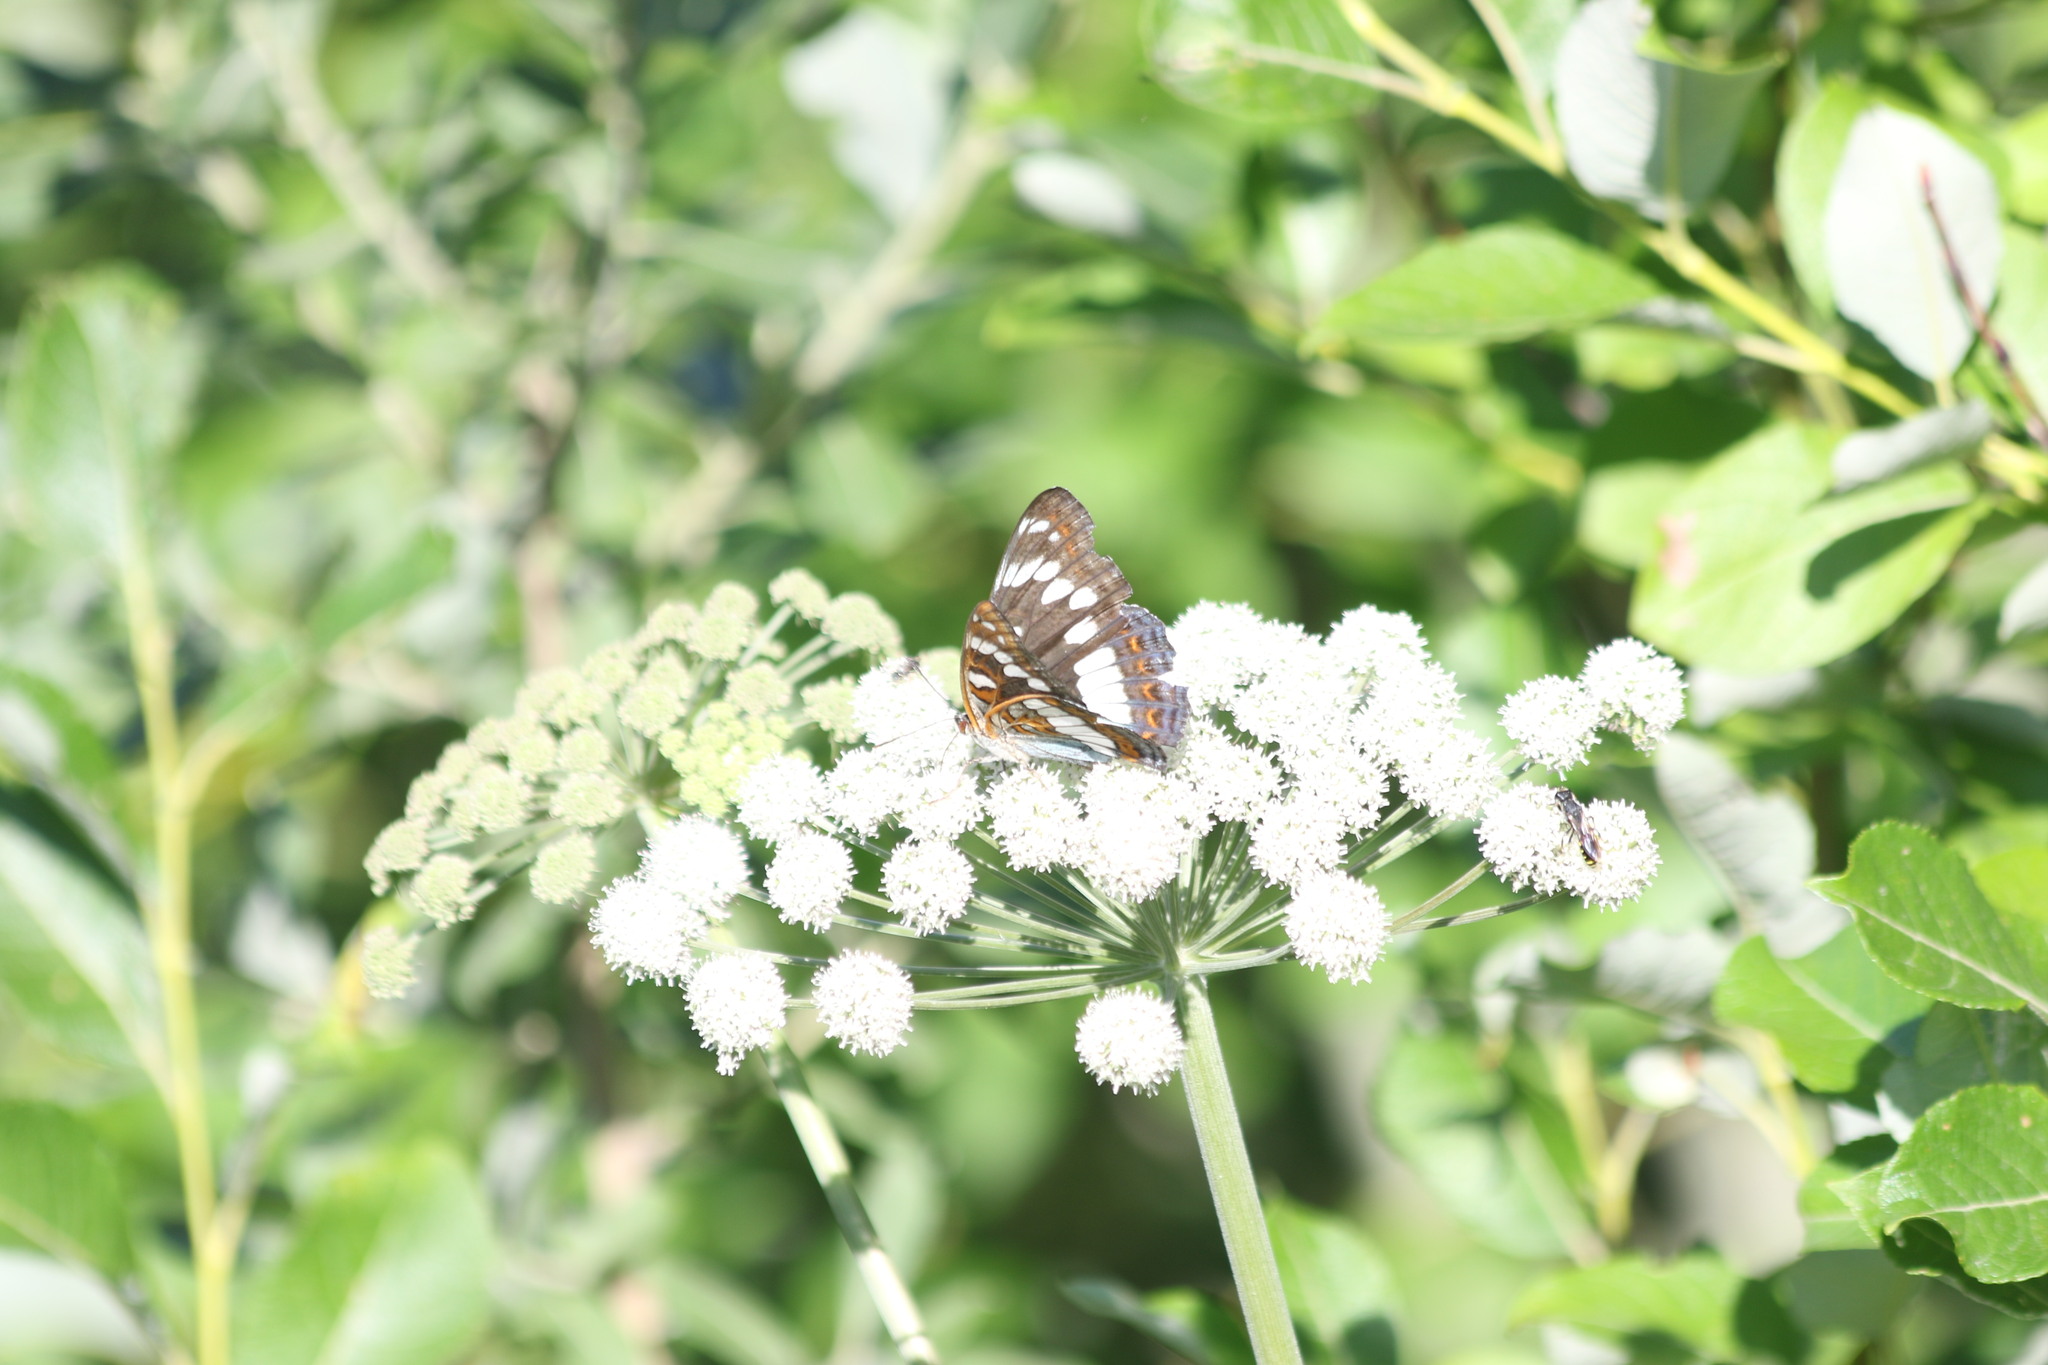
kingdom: Animalia
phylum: Arthropoda
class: Insecta
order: Lepidoptera
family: Nymphalidae
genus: Limenitis
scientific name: Limenitis populi
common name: Poplar admiral
